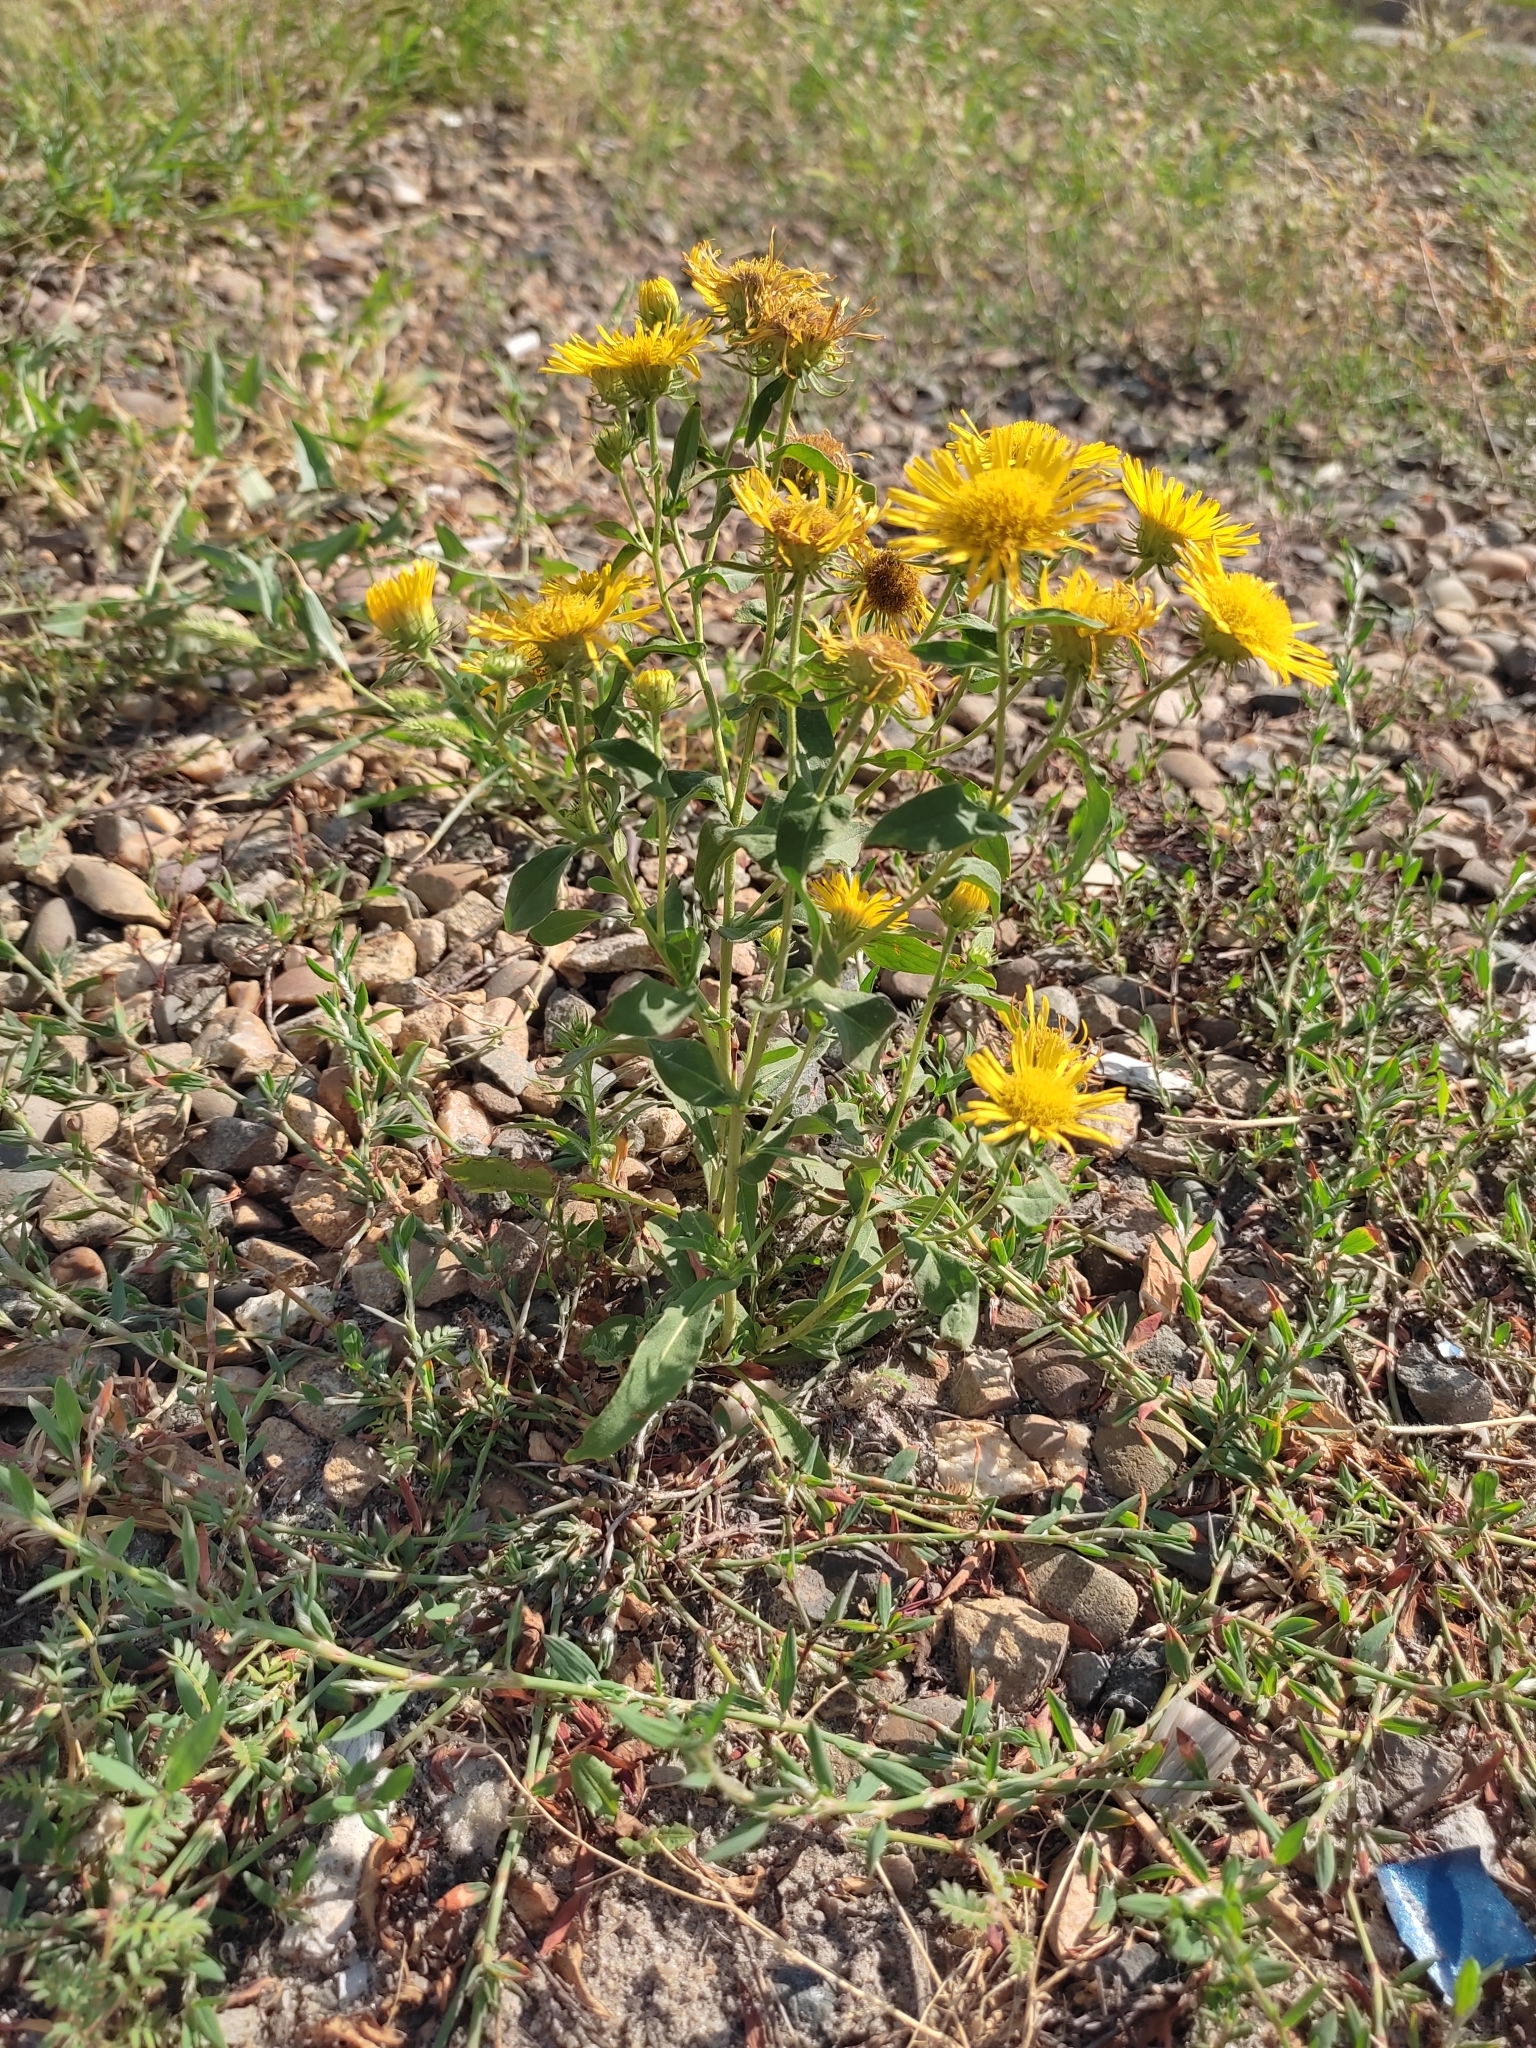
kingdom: Plantae
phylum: Tracheophyta
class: Magnoliopsida
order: Asterales
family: Asteraceae
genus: Pentanema
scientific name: Pentanema britannicum
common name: British elecampane
